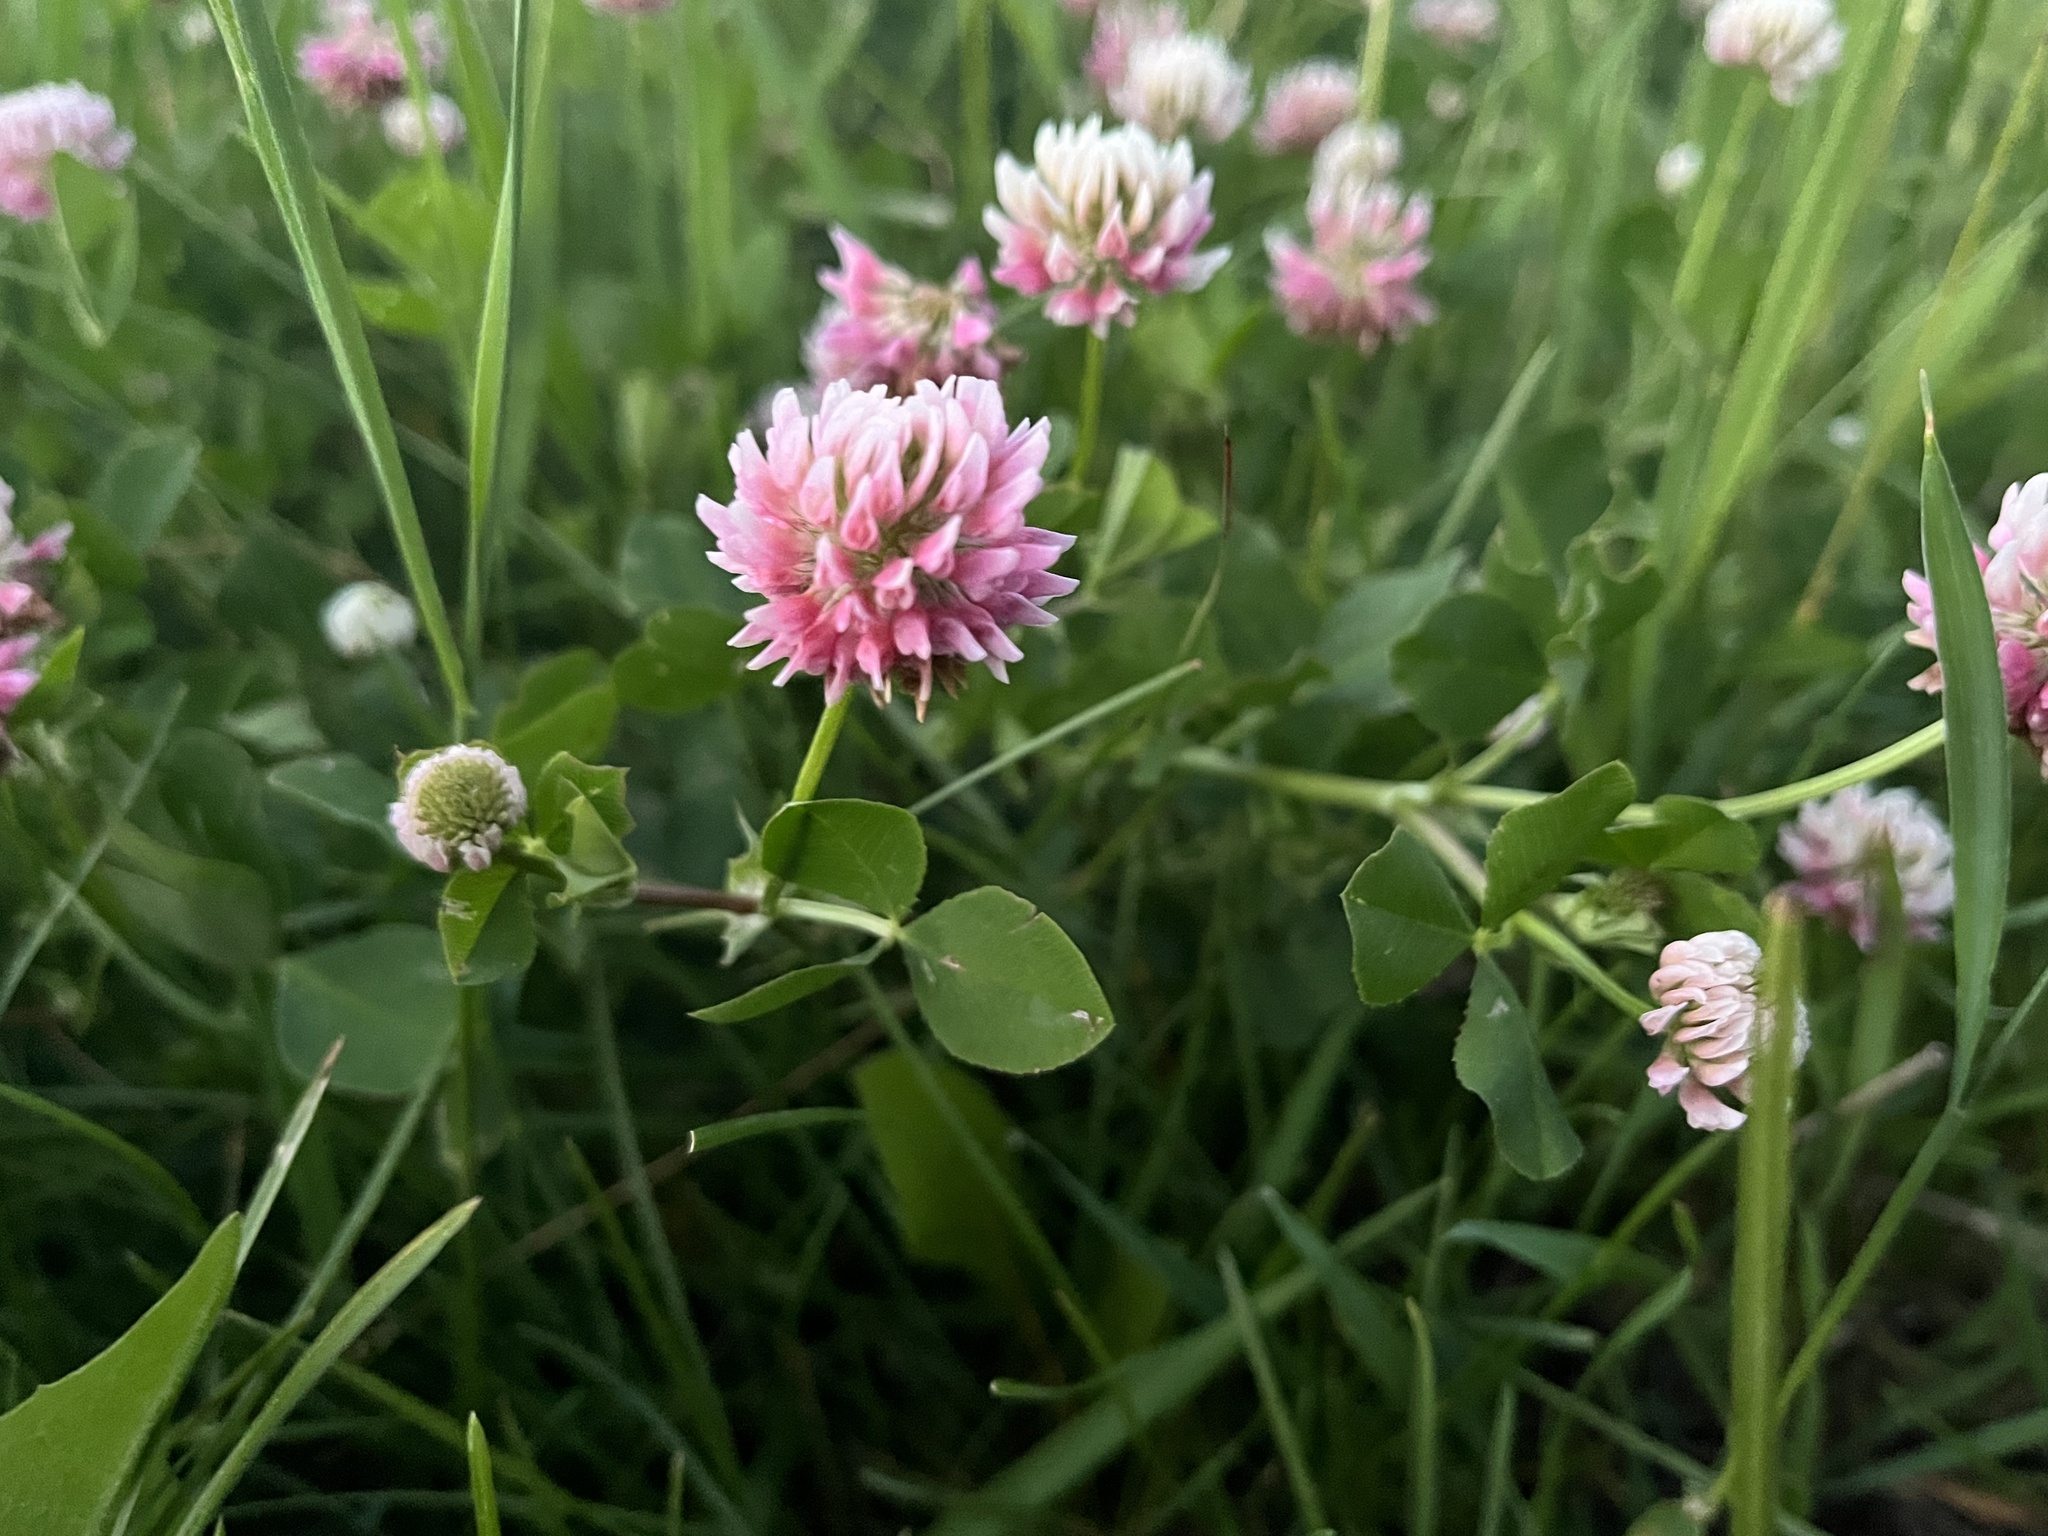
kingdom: Plantae
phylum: Tracheophyta
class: Magnoliopsida
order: Fabales
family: Fabaceae
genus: Trifolium
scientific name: Trifolium hybridum
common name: Alsike clover
